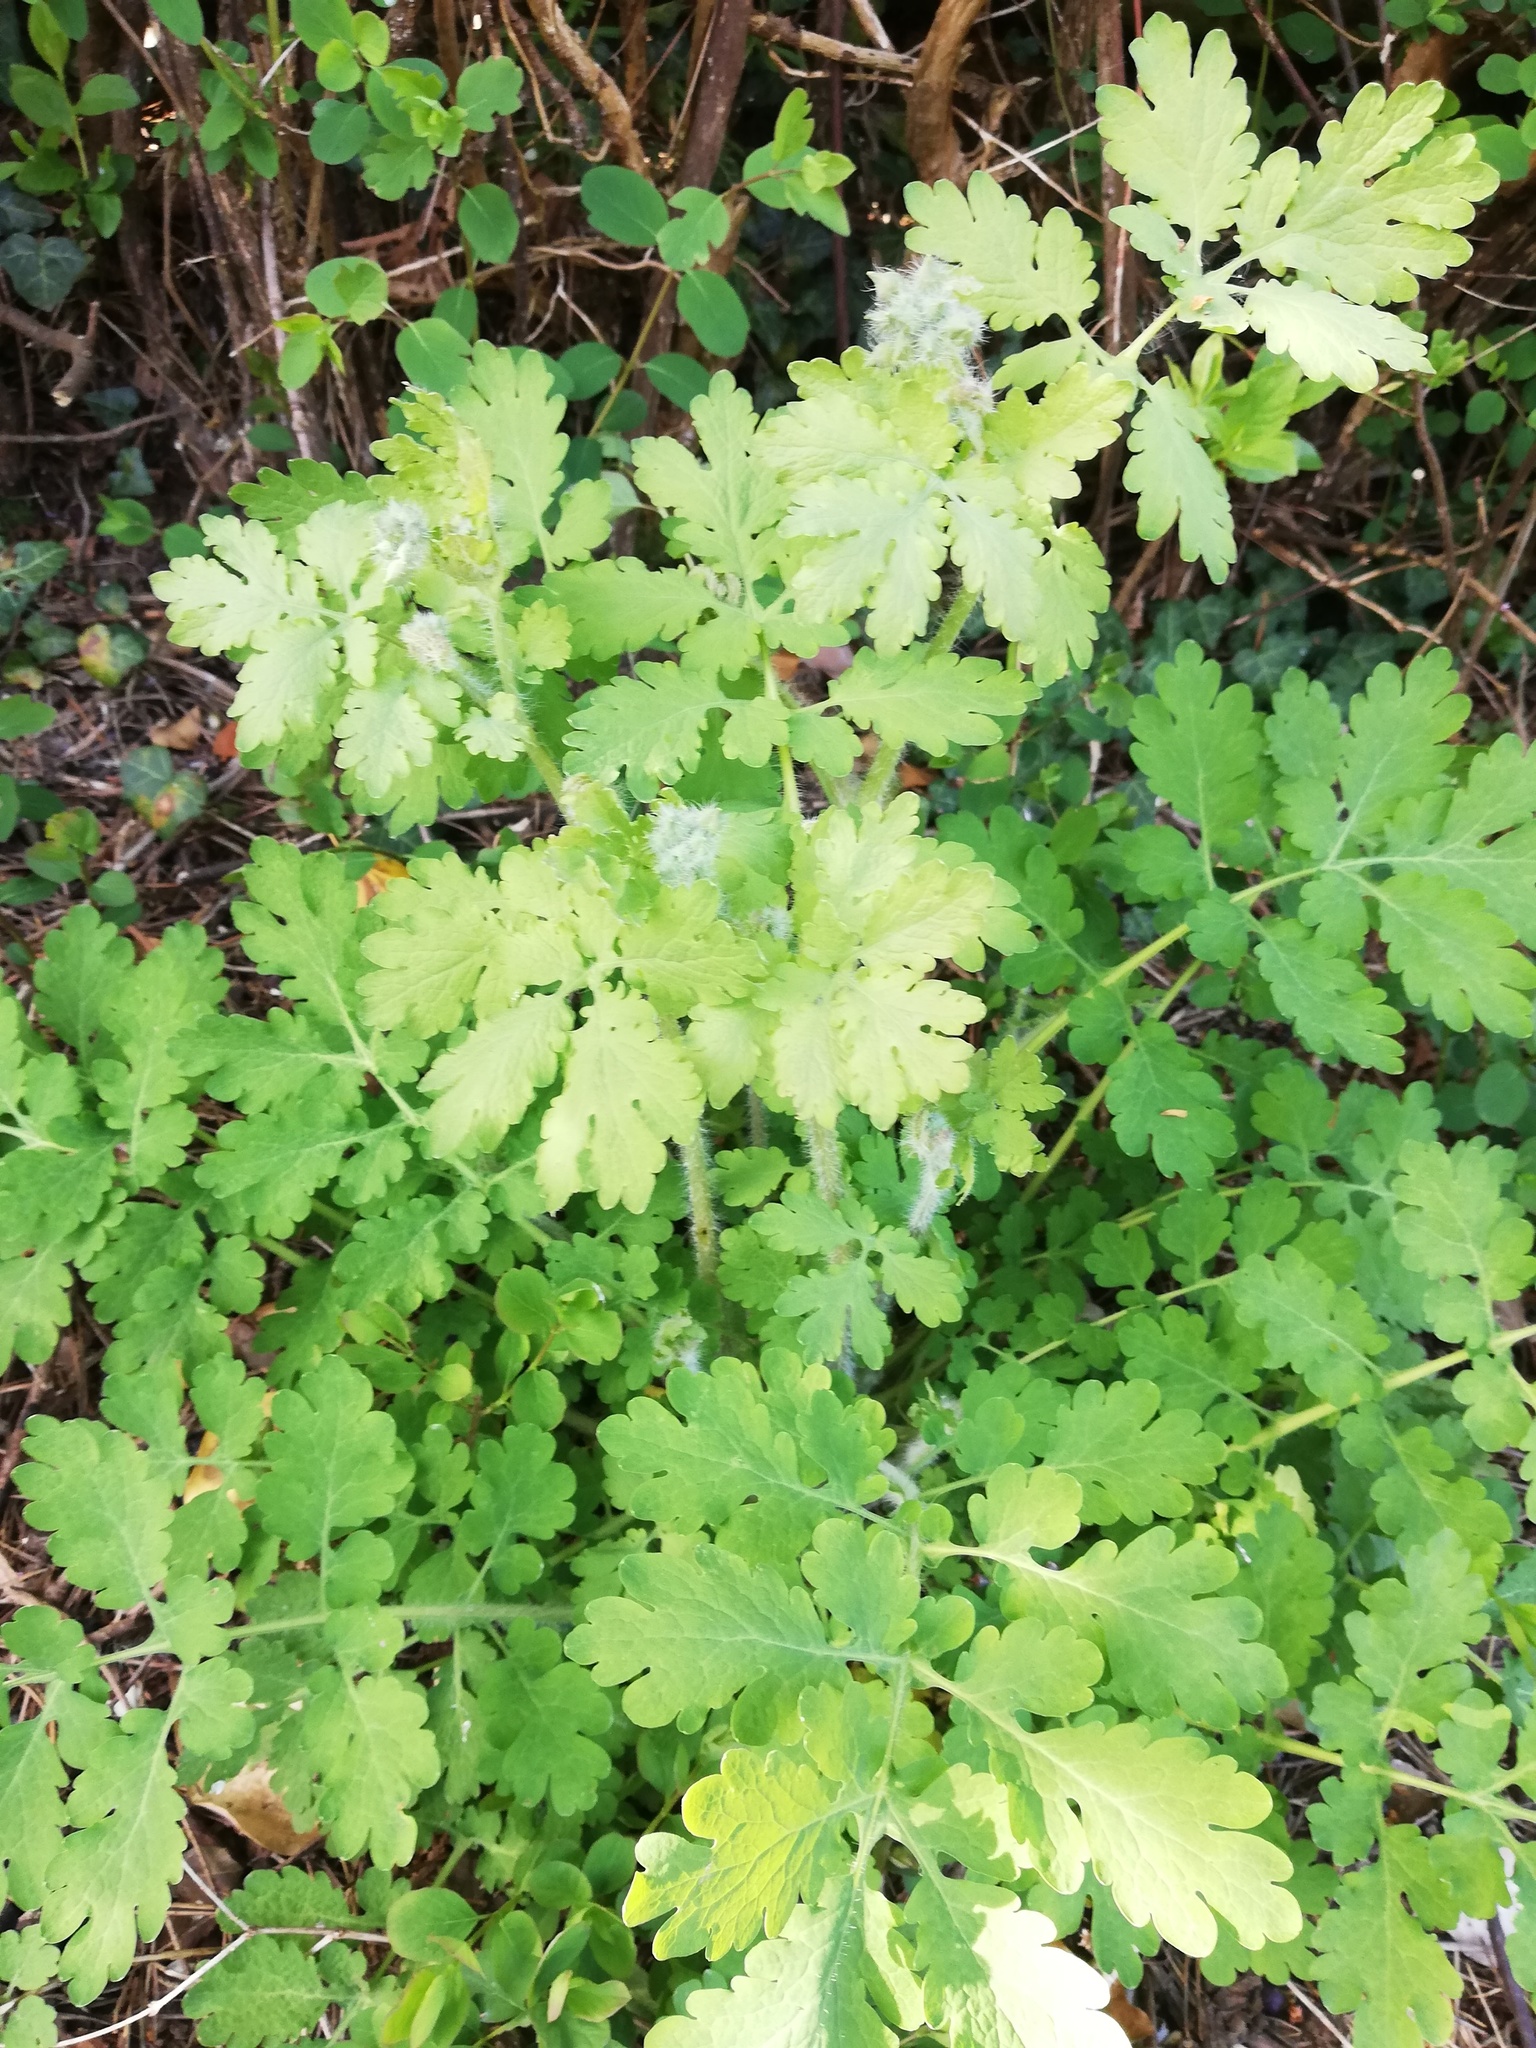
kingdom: Plantae
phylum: Tracheophyta
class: Magnoliopsida
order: Ranunculales
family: Papaveraceae
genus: Chelidonium
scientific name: Chelidonium majus
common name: Greater celandine
